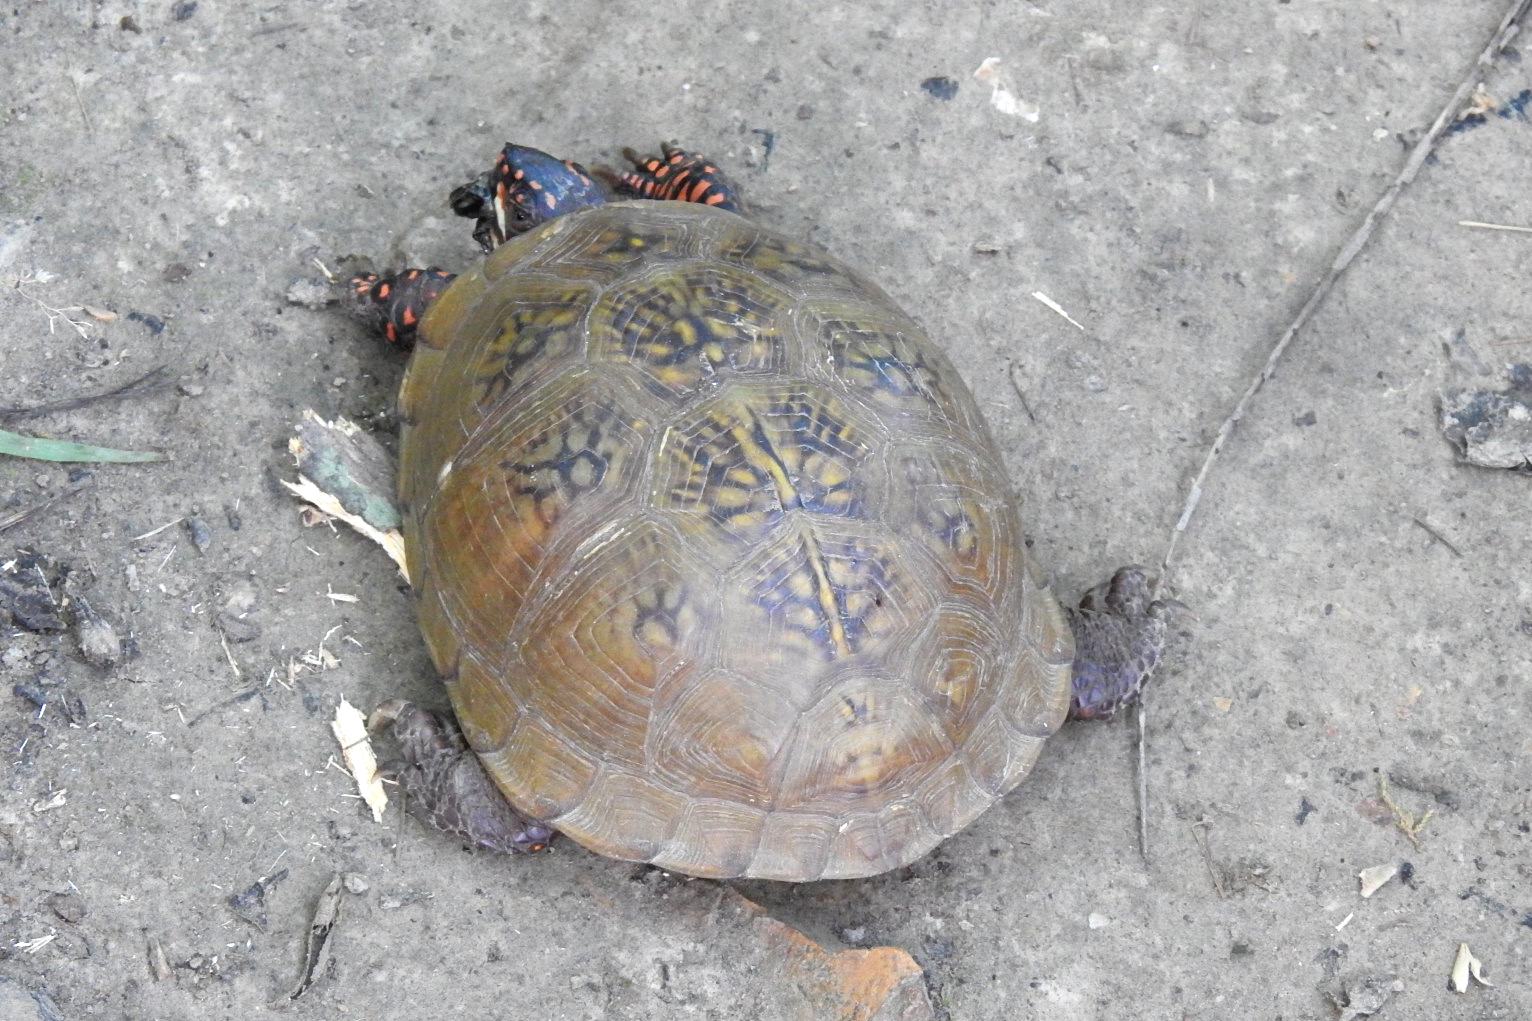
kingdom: Animalia
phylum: Chordata
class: Testudines
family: Emydidae
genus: Terrapene
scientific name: Terrapene carolina
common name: Common box turtle
